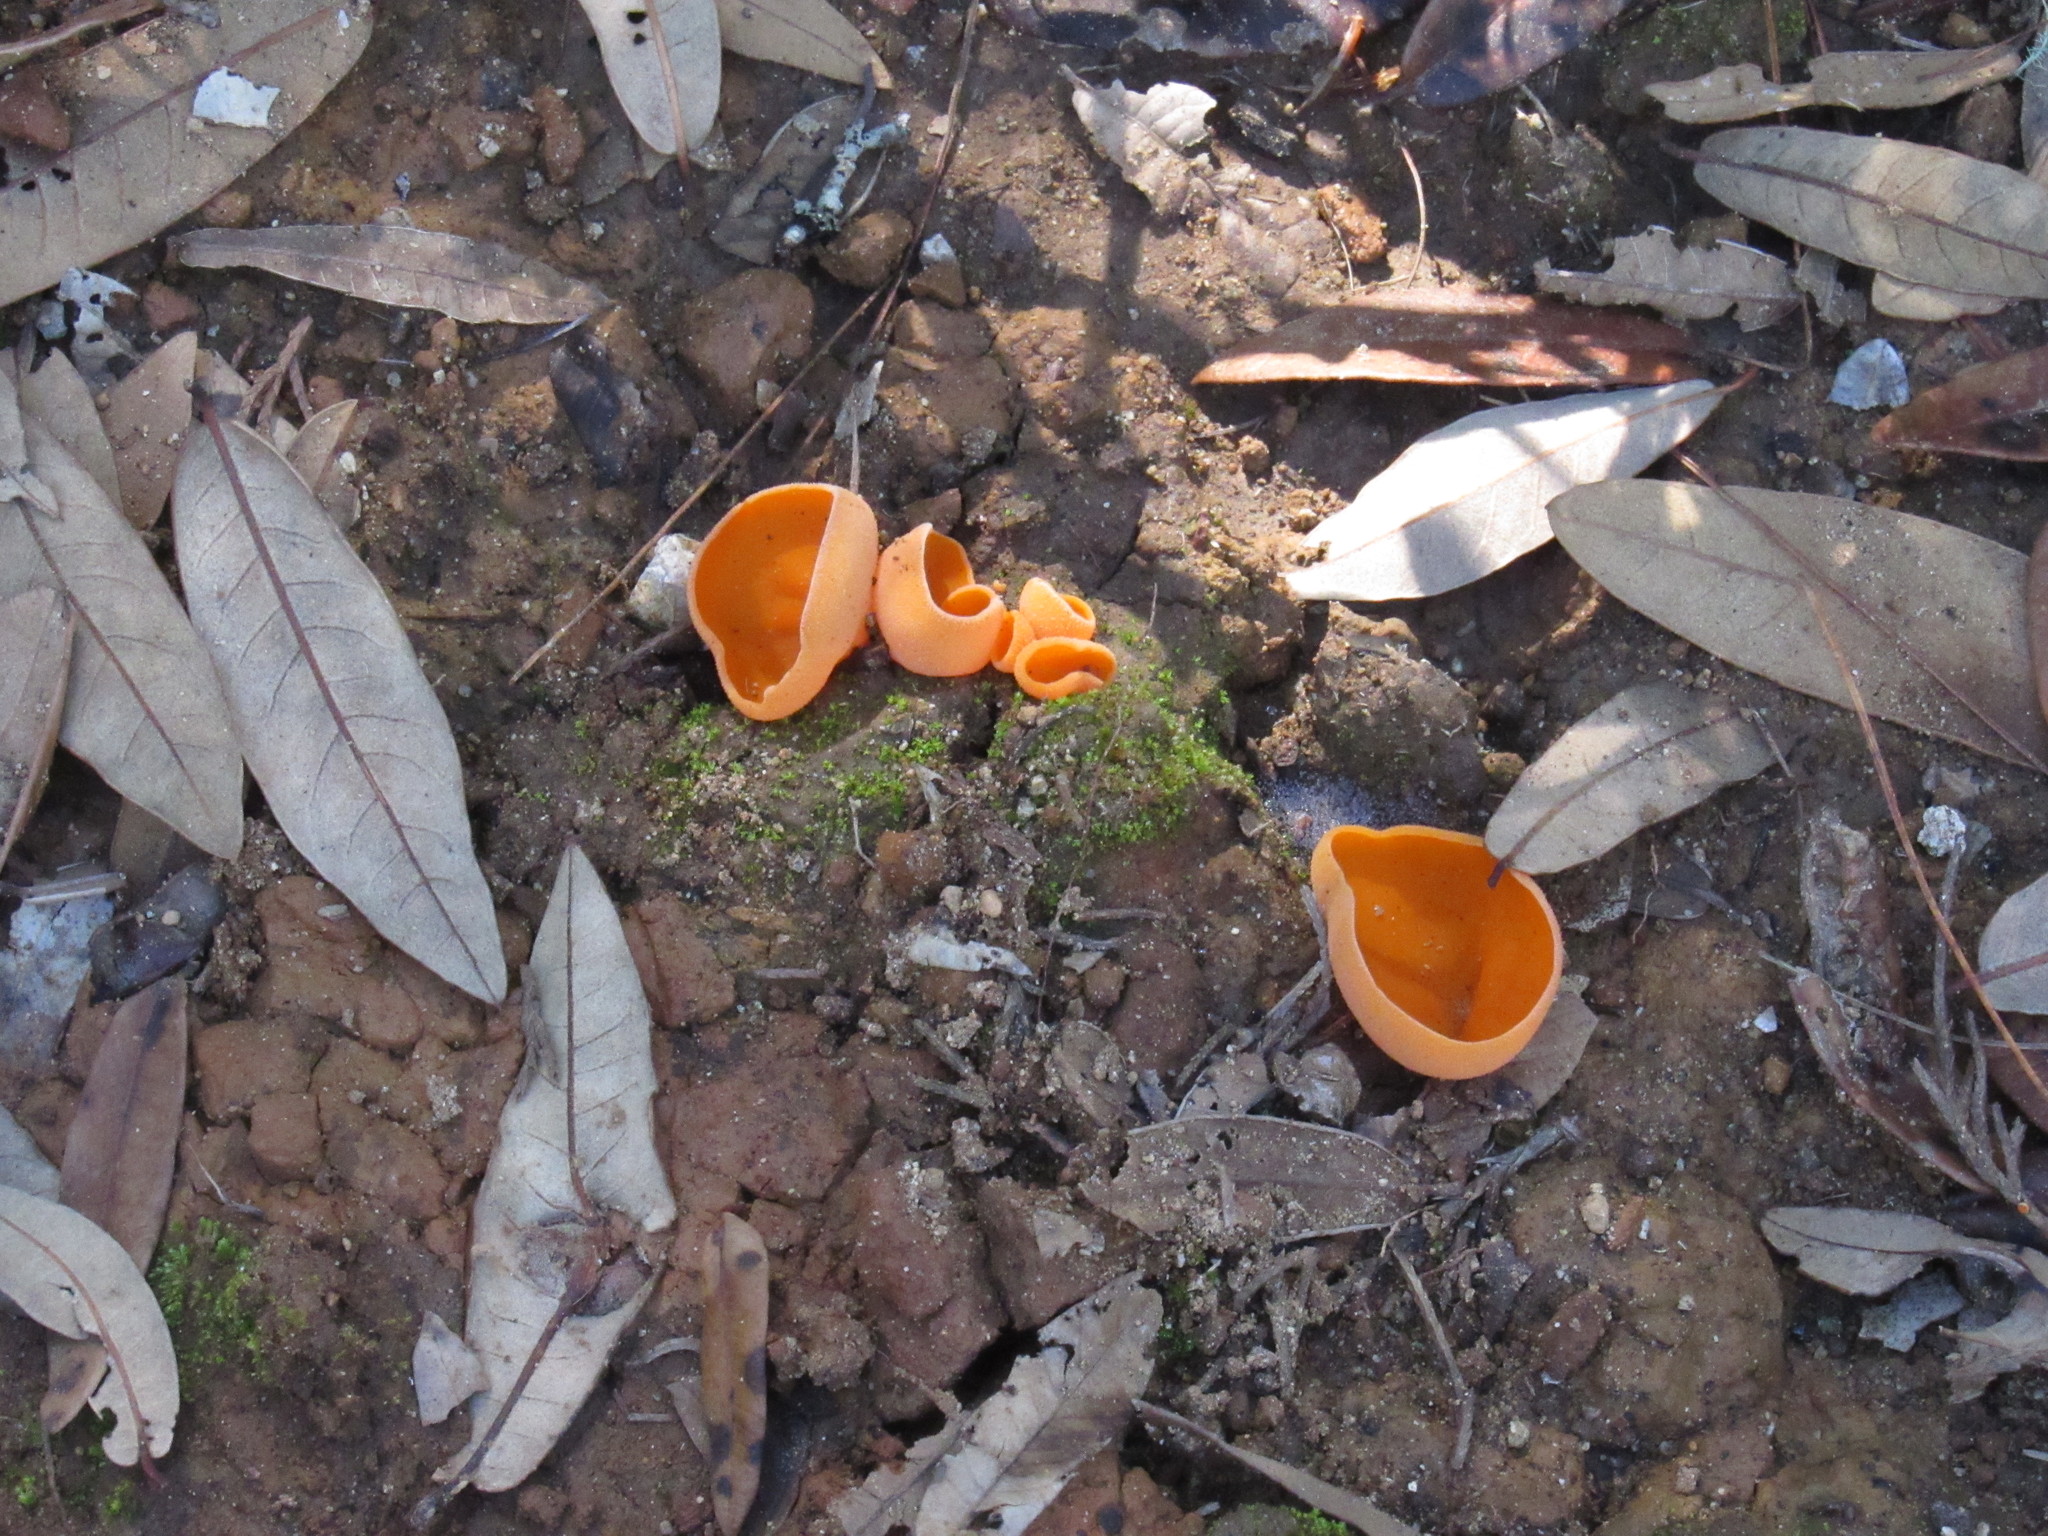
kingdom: Fungi
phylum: Ascomycota
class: Pezizomycetes
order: Pezizales
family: Pyronemataceae
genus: Aleuria
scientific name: Aleuria aurantia
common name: Orange peel fungus
